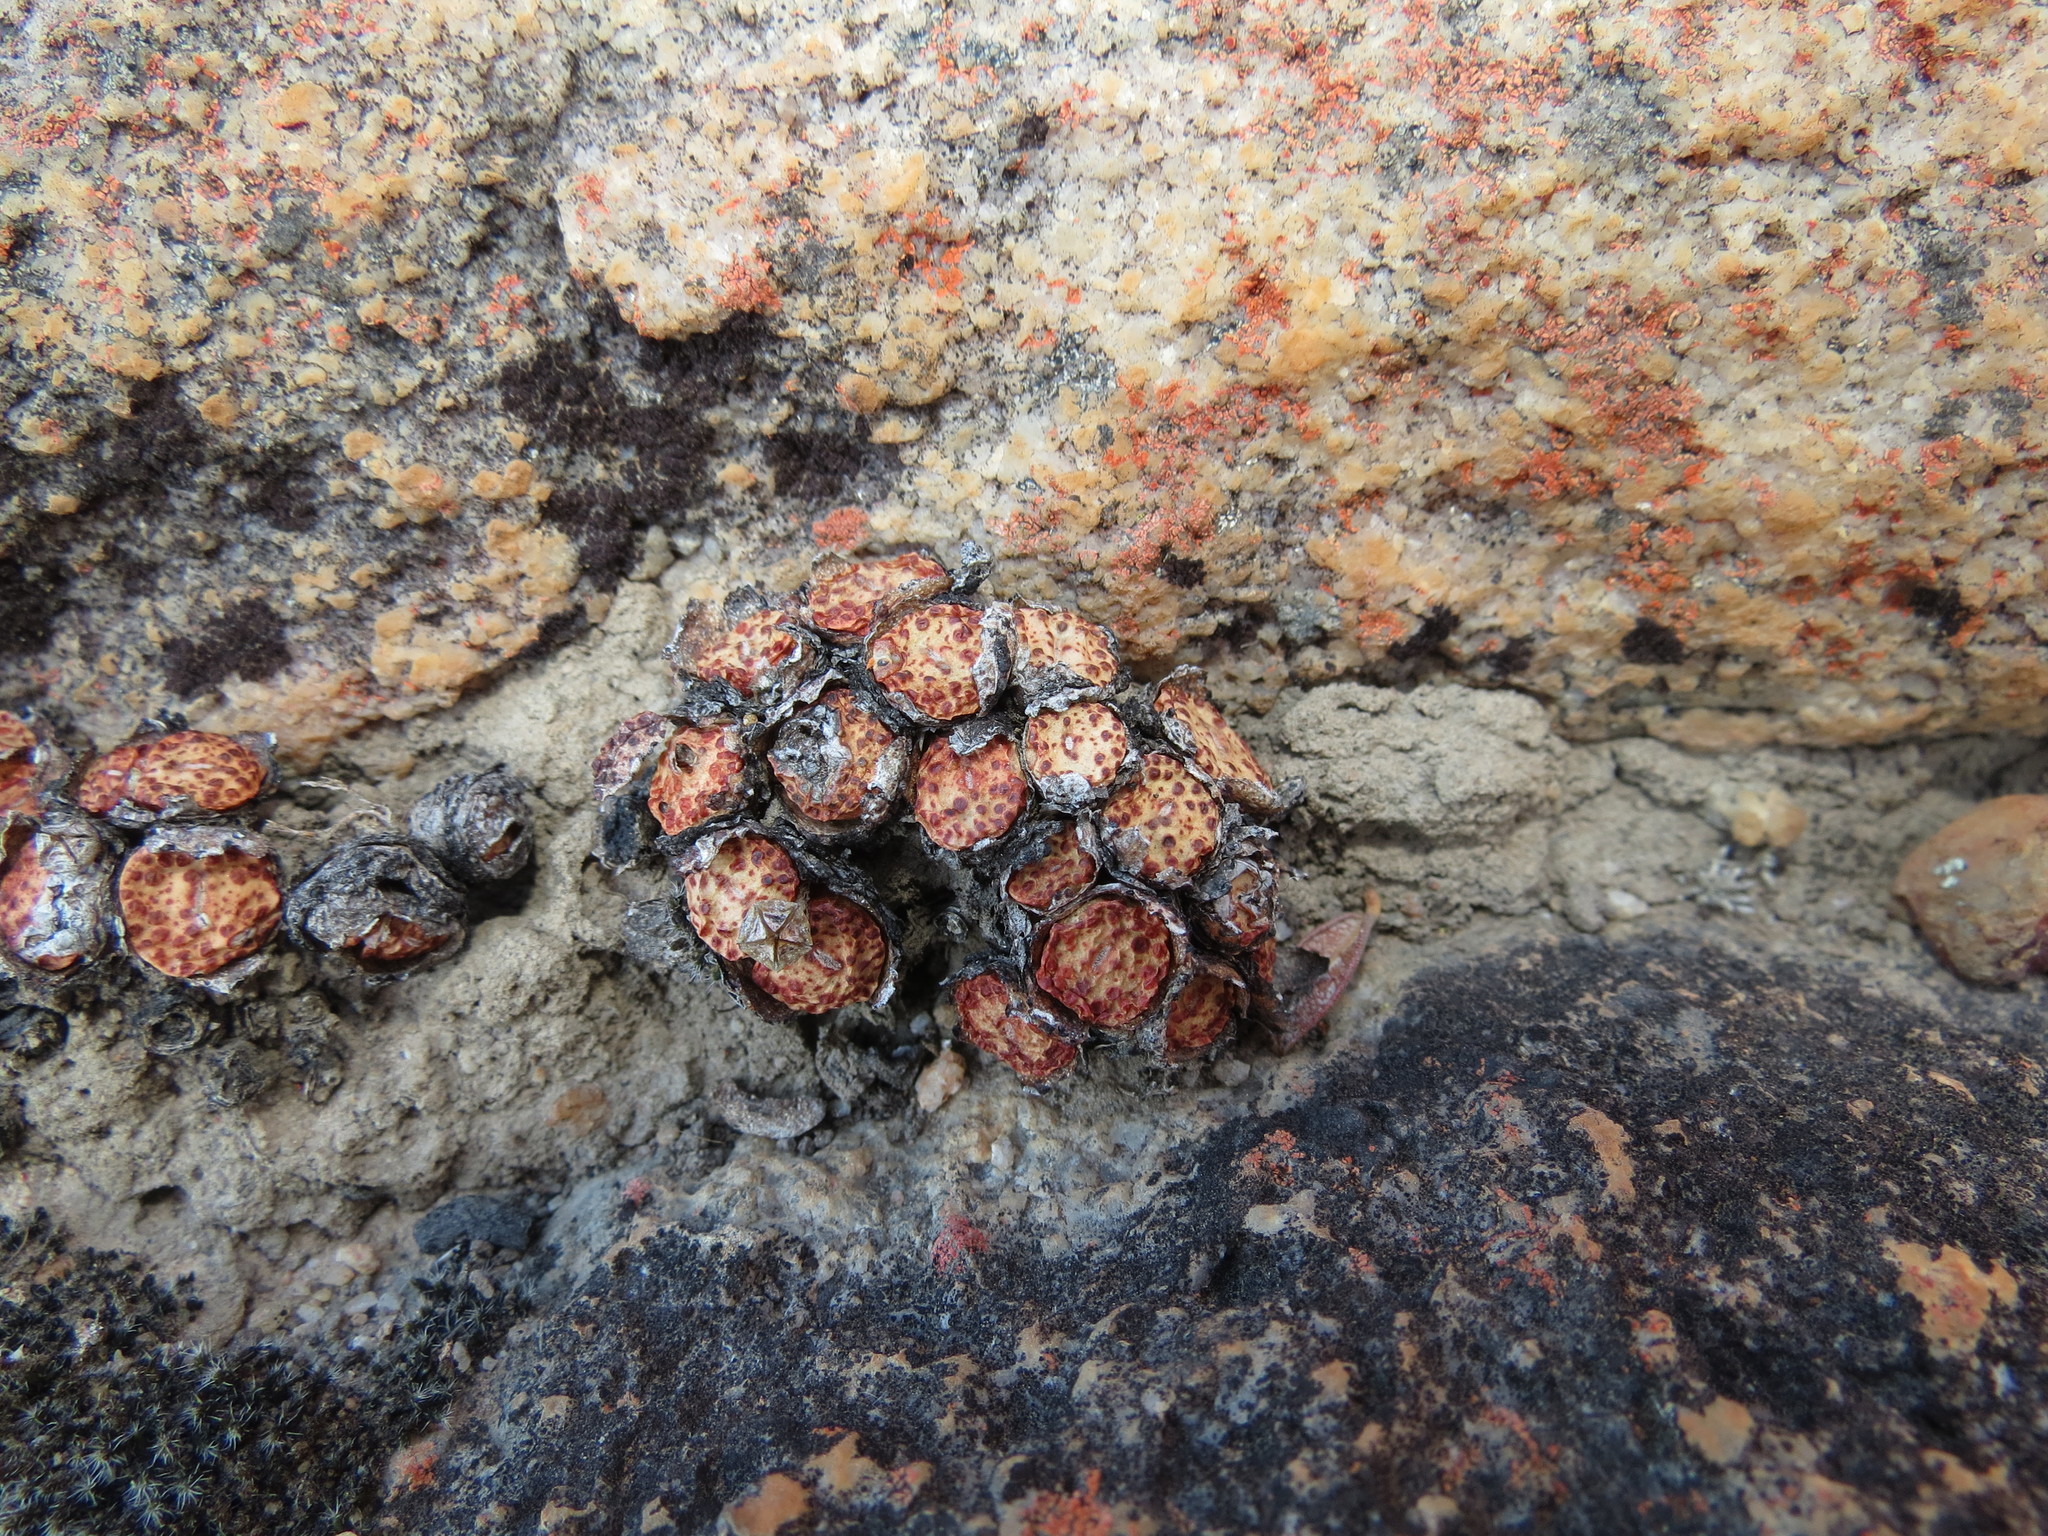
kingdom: Plantae
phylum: Tracheophyta
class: Magnoliopsida
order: Caryophyllales
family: Aizoaceae
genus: Conophytum
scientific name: Conophytum obcordellum
